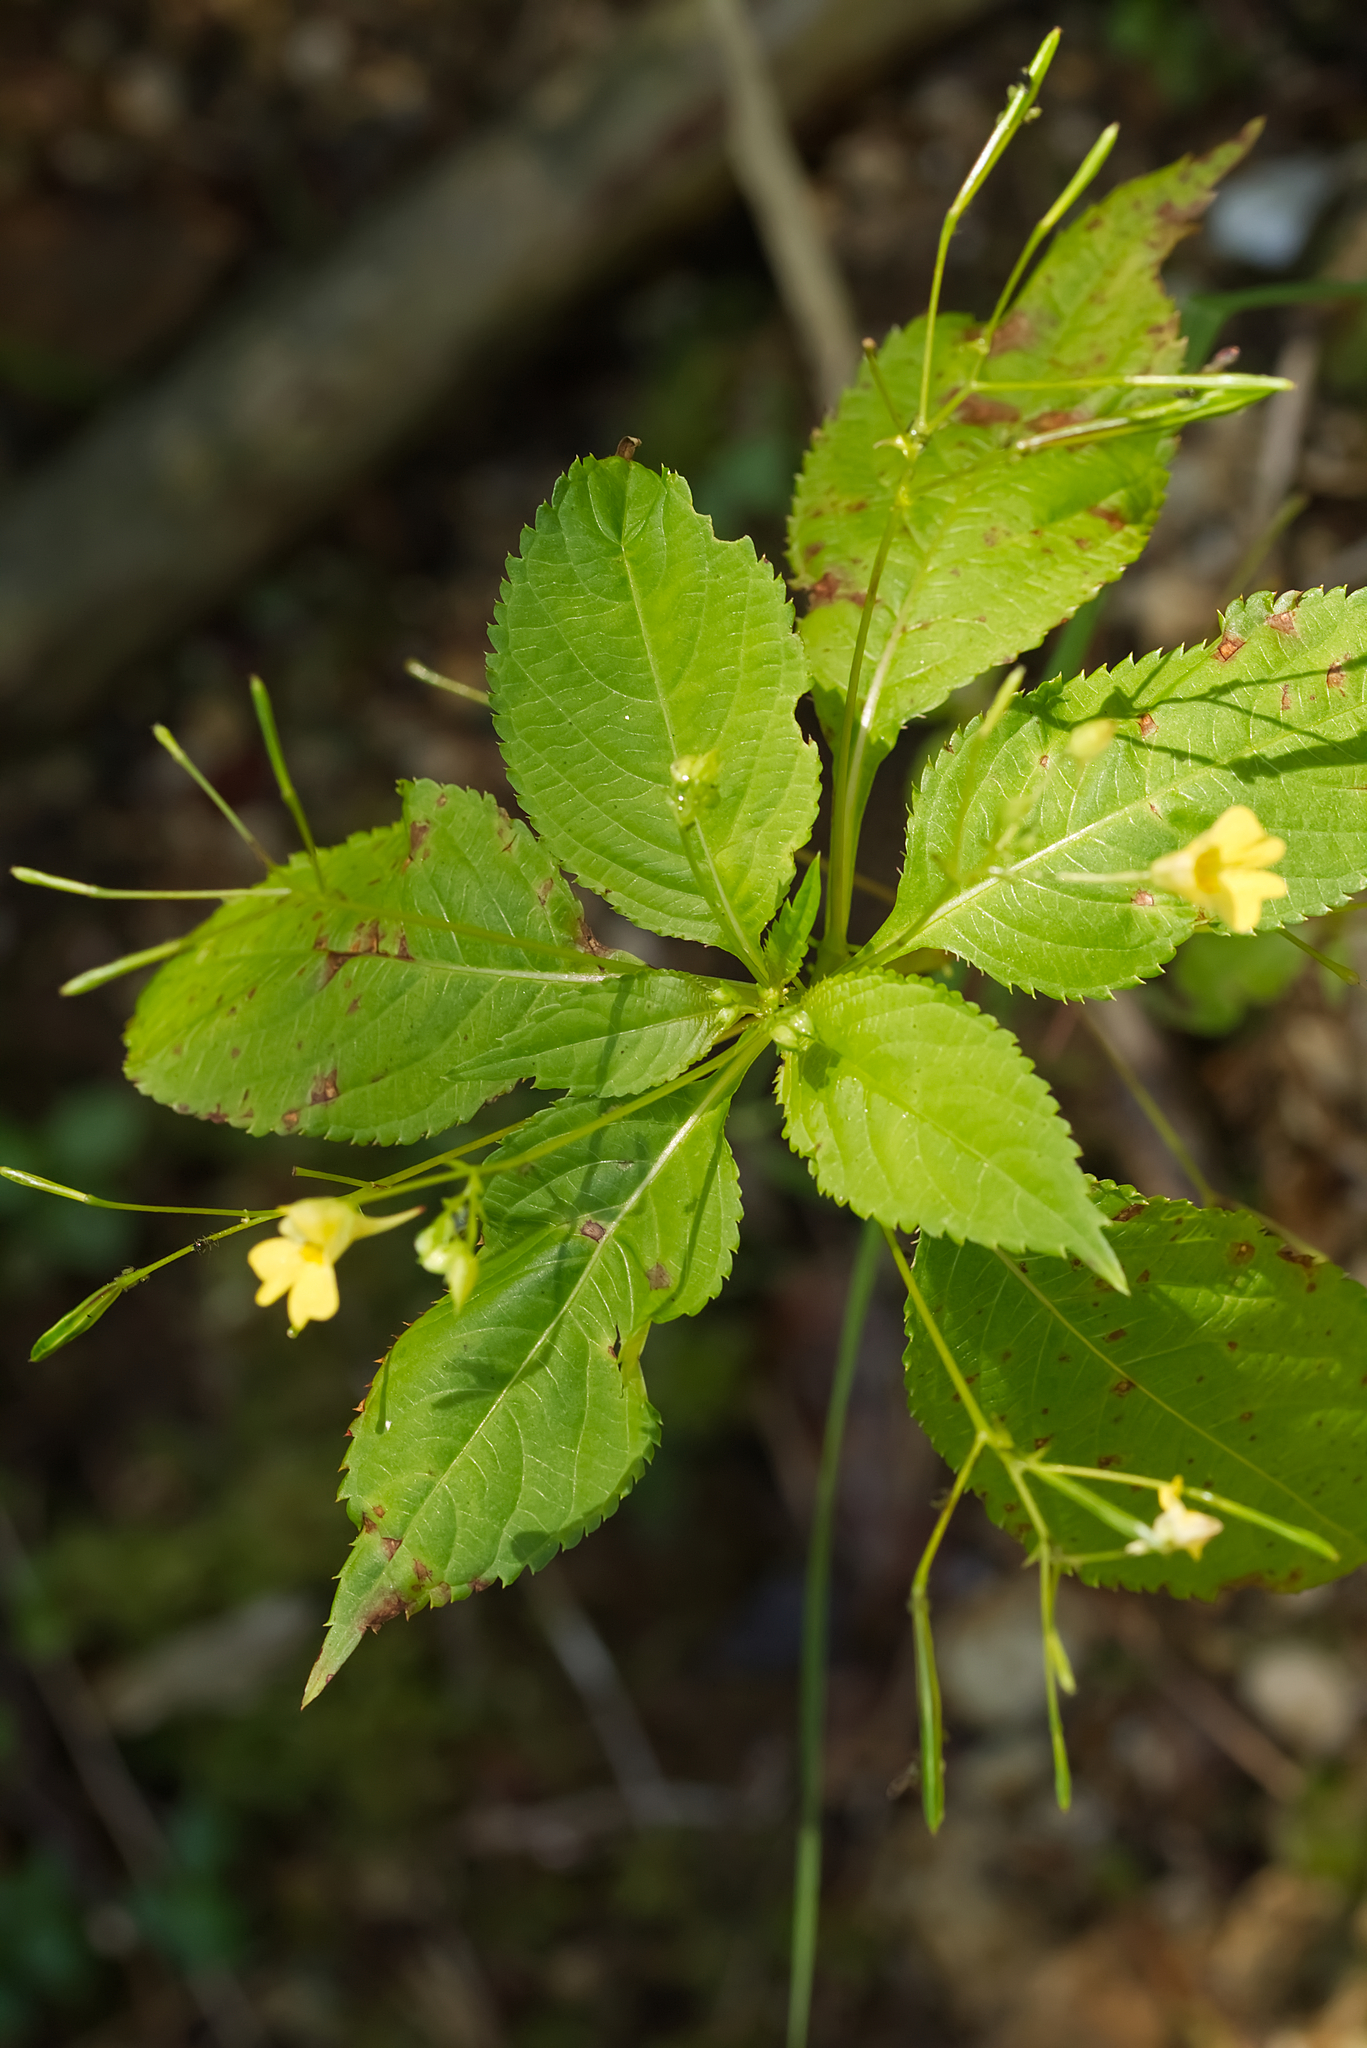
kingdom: Plantae
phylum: Tracheophyta
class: Magnoliopsida
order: Ericales
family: Balsaminaceae
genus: Impatiens
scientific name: Impatiens parviflora
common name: Small balsam
